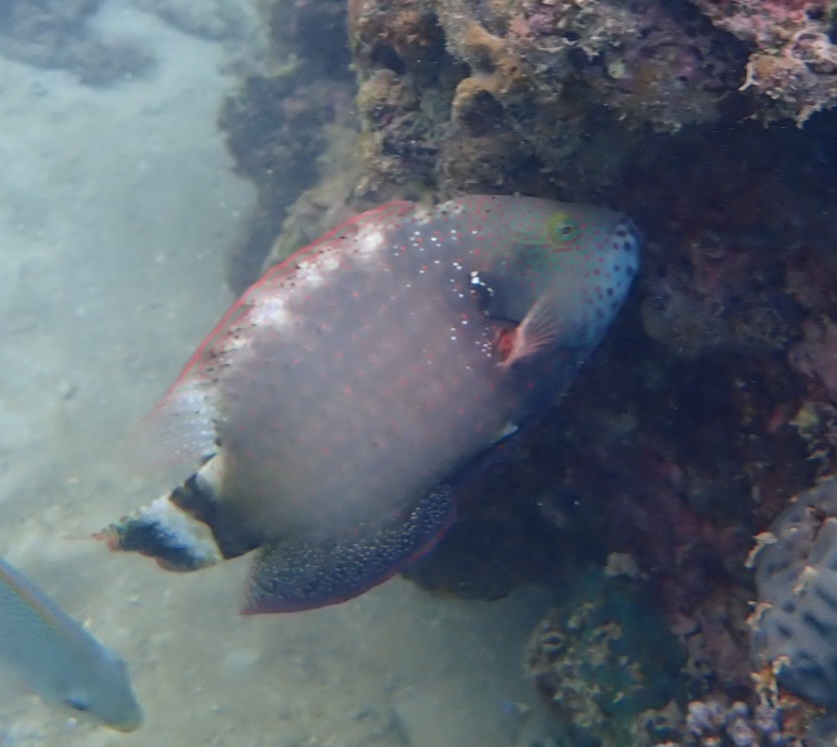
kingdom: Animalia
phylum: Chordata
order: Perciformes
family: Labridae
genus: Cheilinus
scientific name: Cheilinus chlorourus
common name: Floral wrasse
